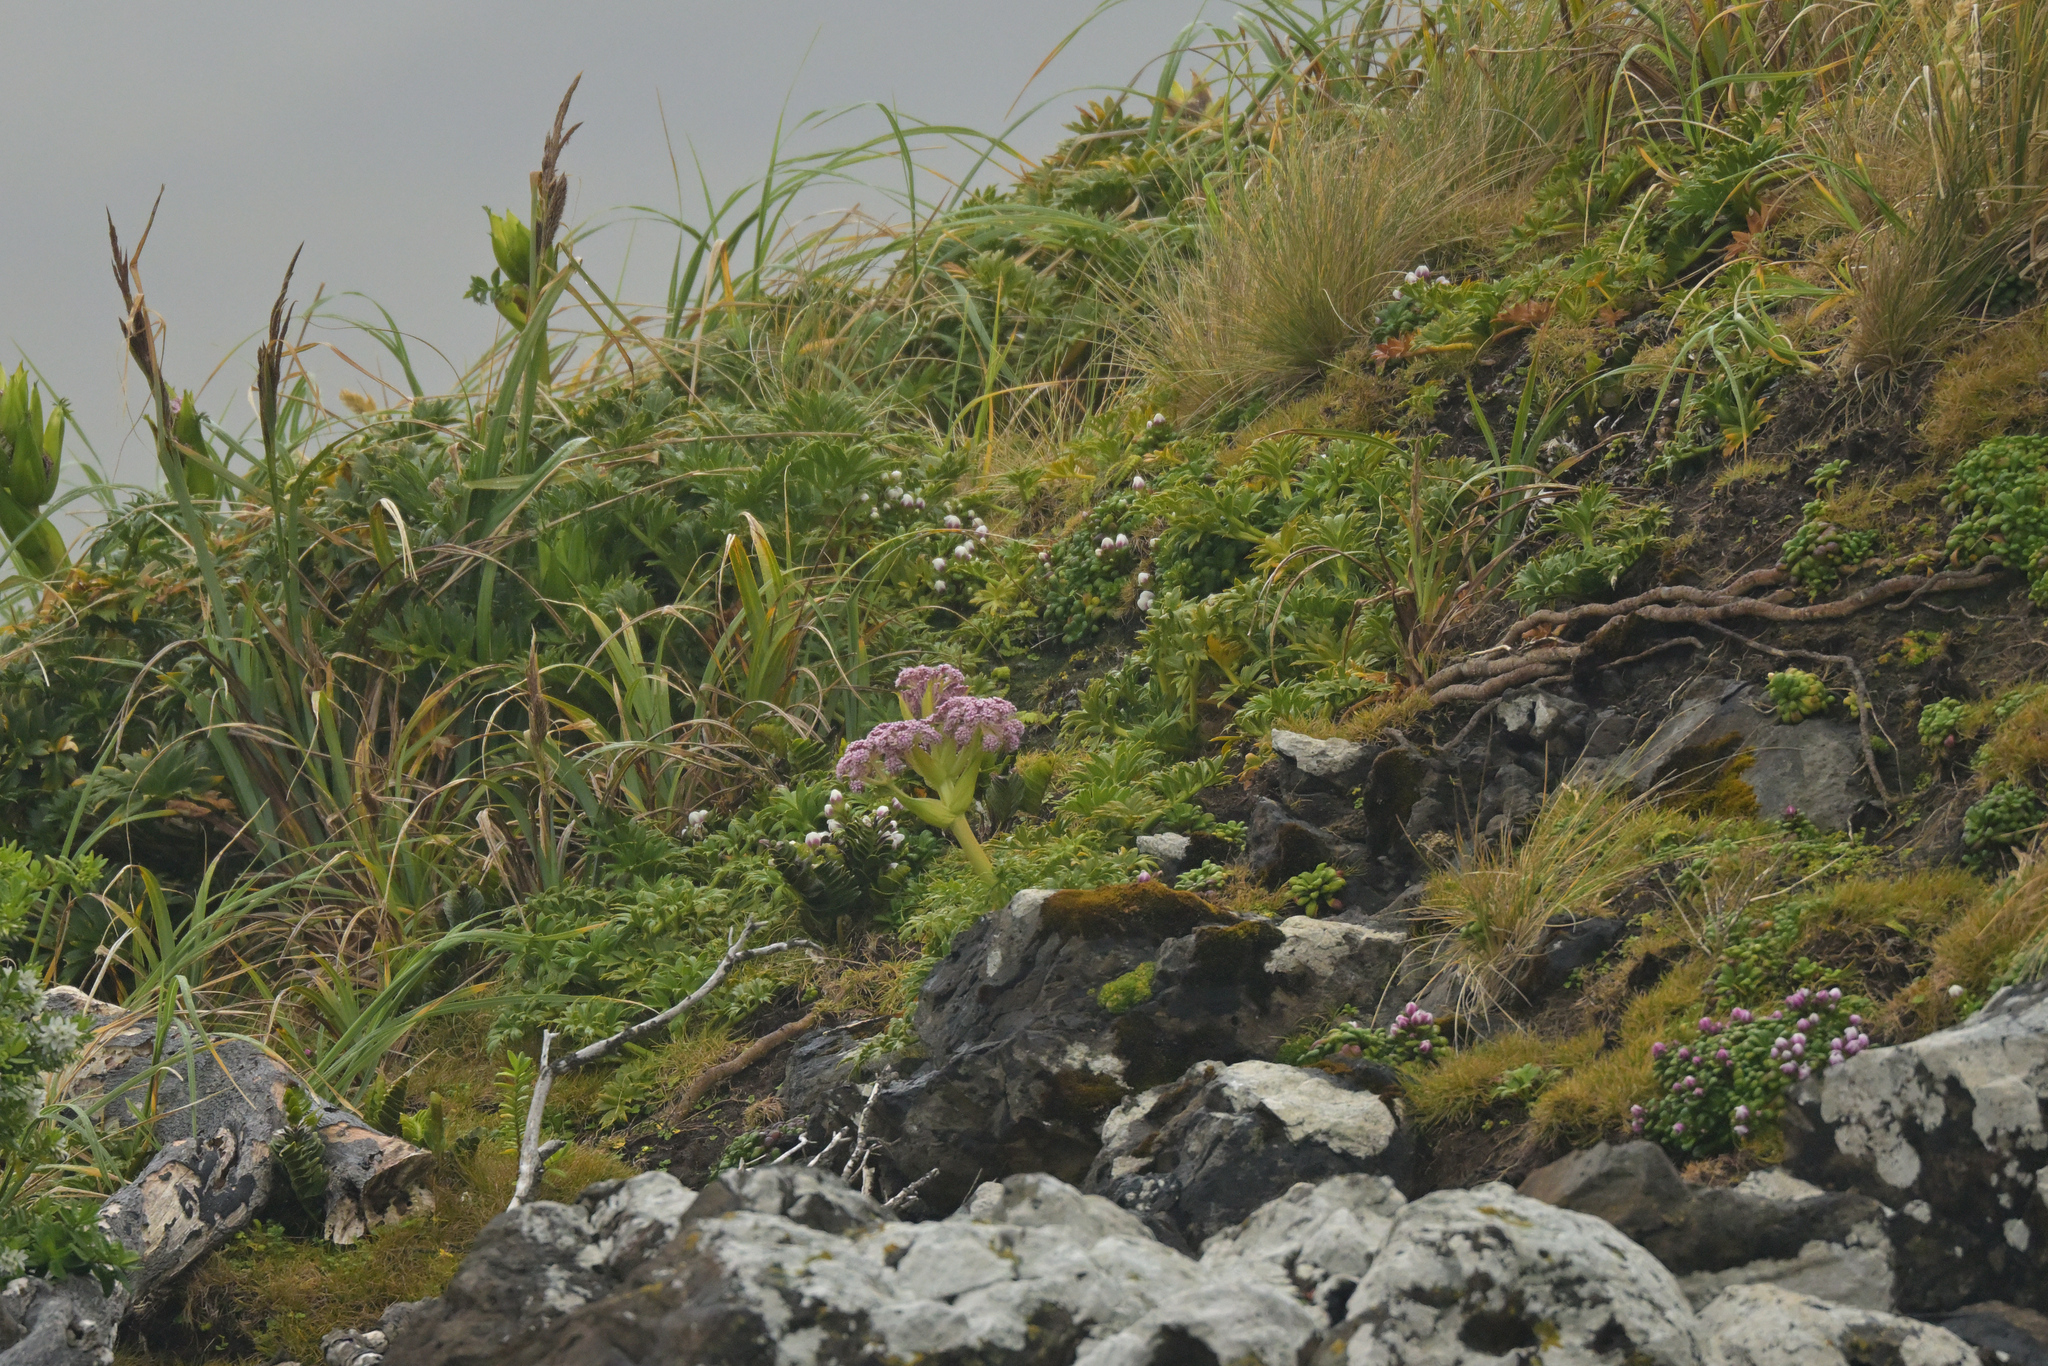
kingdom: Plantae
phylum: Tracheophyta
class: Magnoliopsida
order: Apiales
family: Apiaceae
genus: Anisotome
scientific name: Anisotome latifolia
